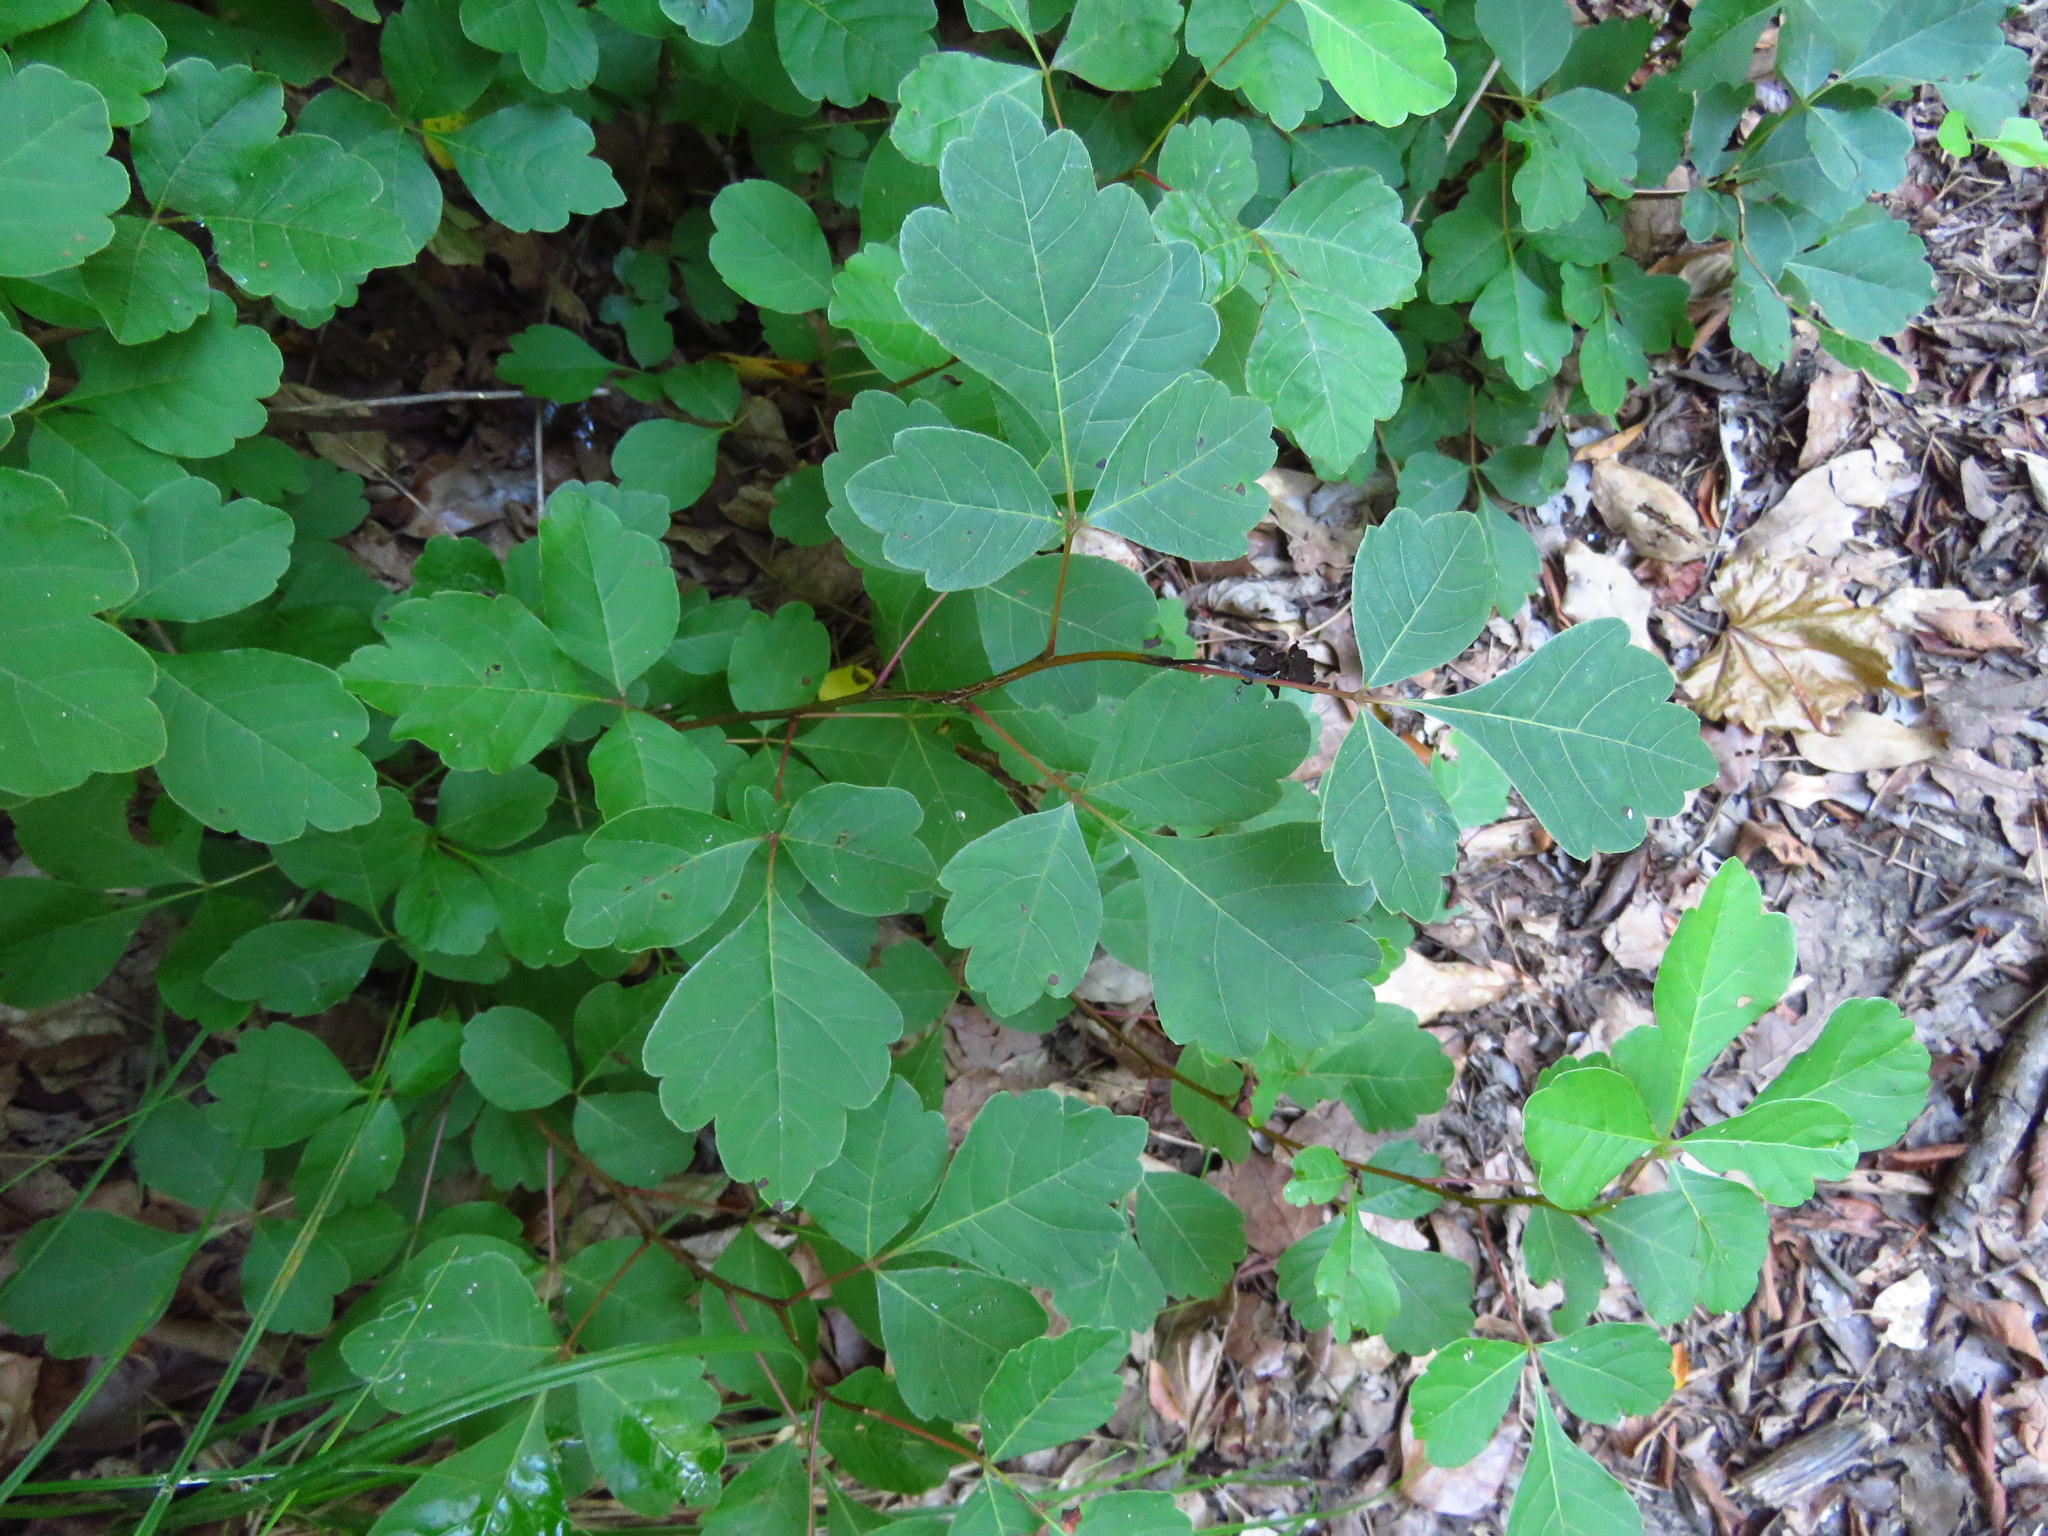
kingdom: Plantae
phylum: Tracheophyta
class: Magnoliopsida
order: Sapindales
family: Anacardiaceae
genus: Rhus
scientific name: Rhus aromatica
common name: Aromatic sumac
